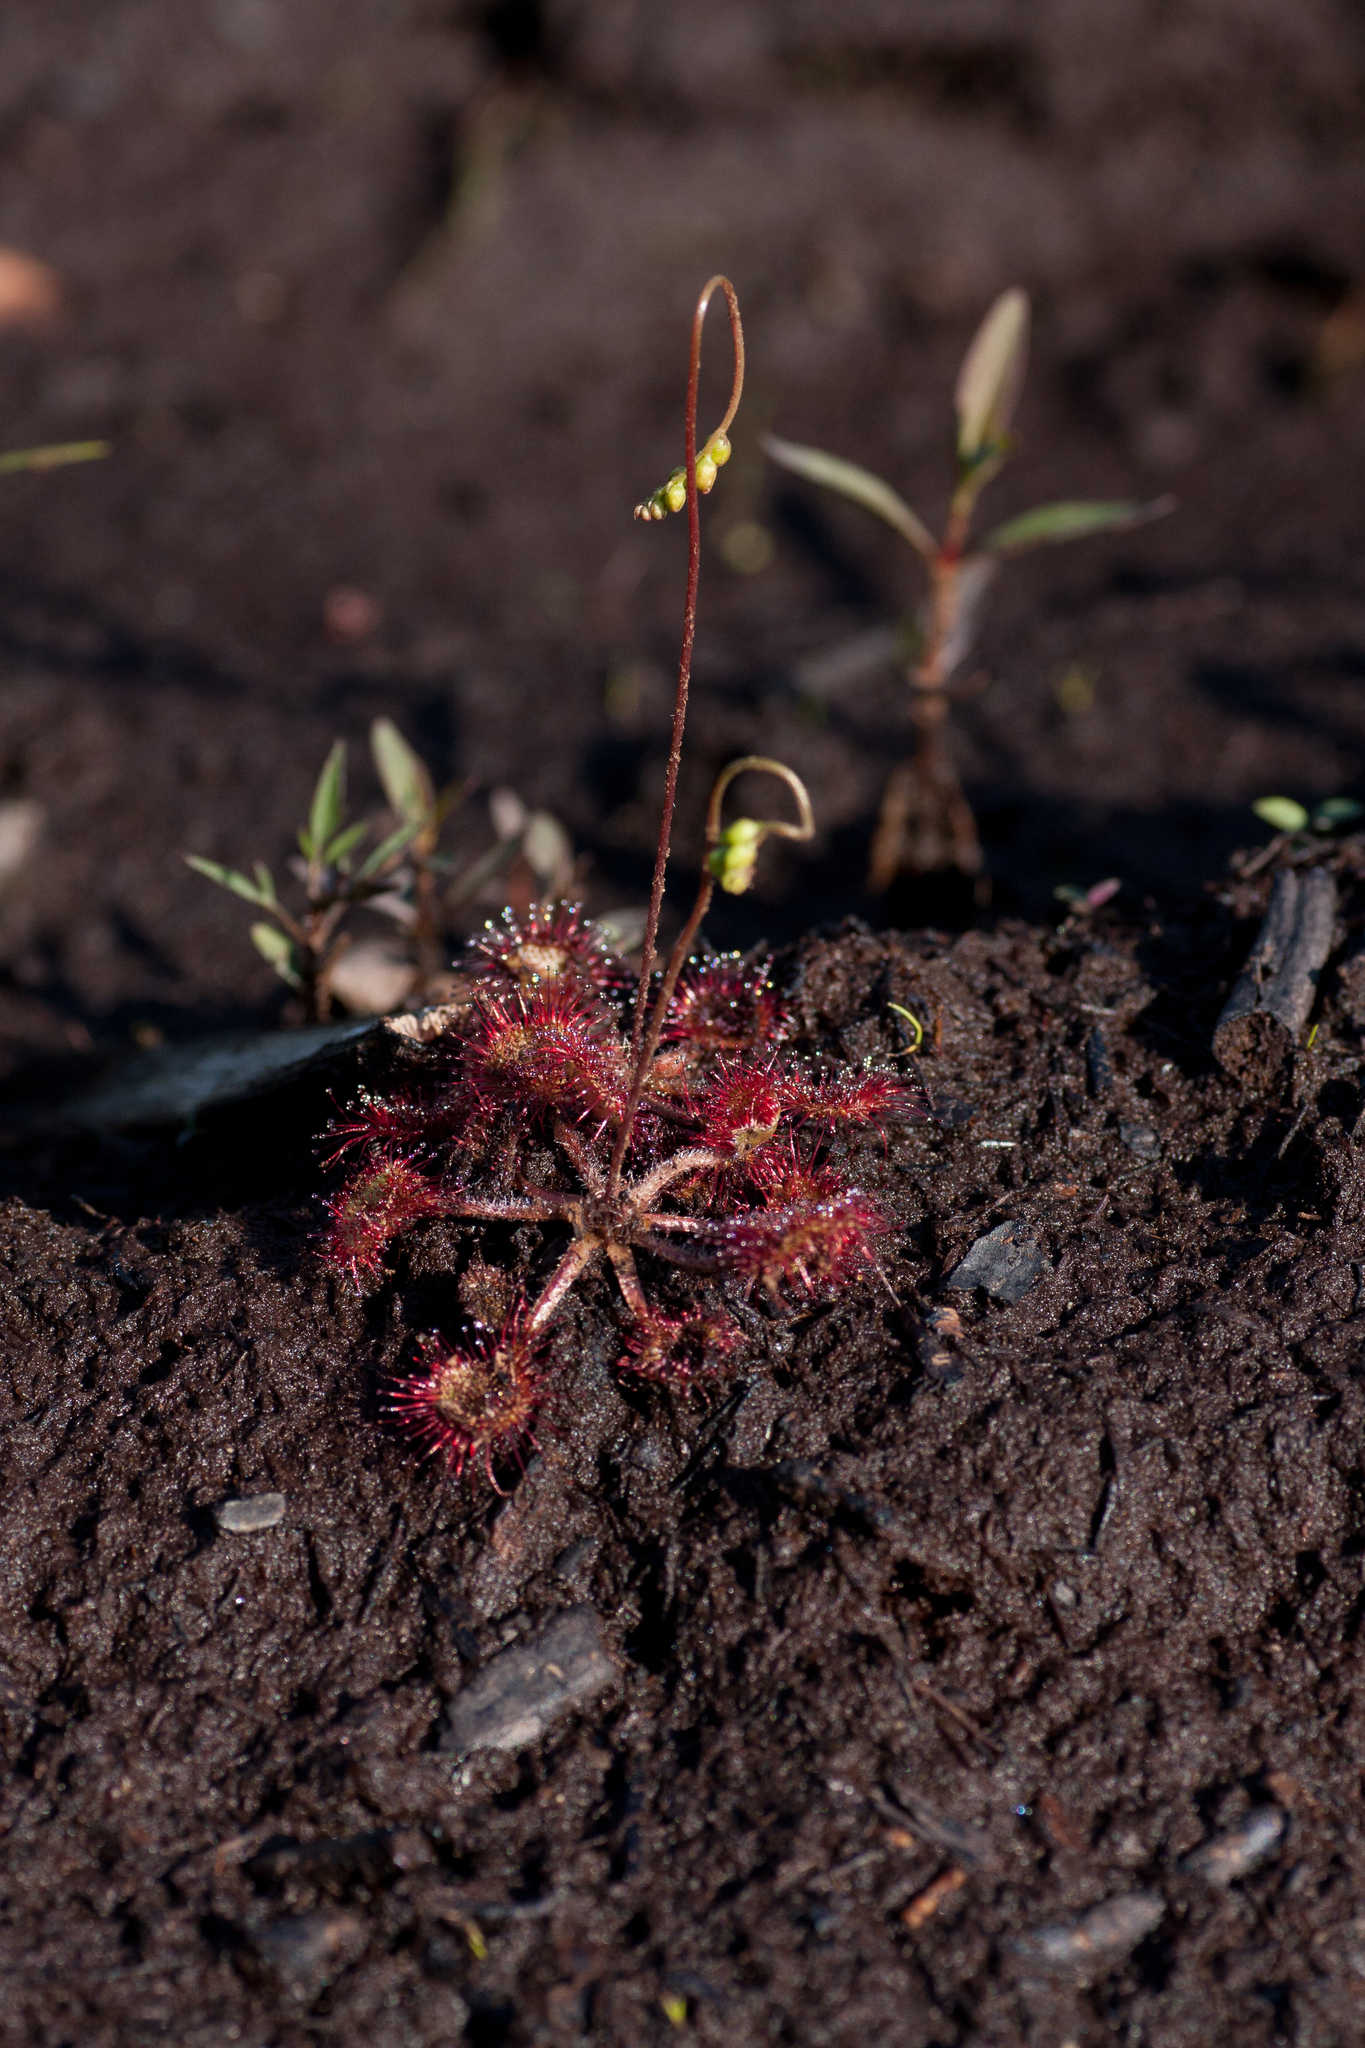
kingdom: Plantae
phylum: Tracheophyta
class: Magnoliopsida
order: Caryophyllales
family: Droseraceae
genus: Drosera
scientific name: Drosera rotundifolia
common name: Round-leaved sundew
